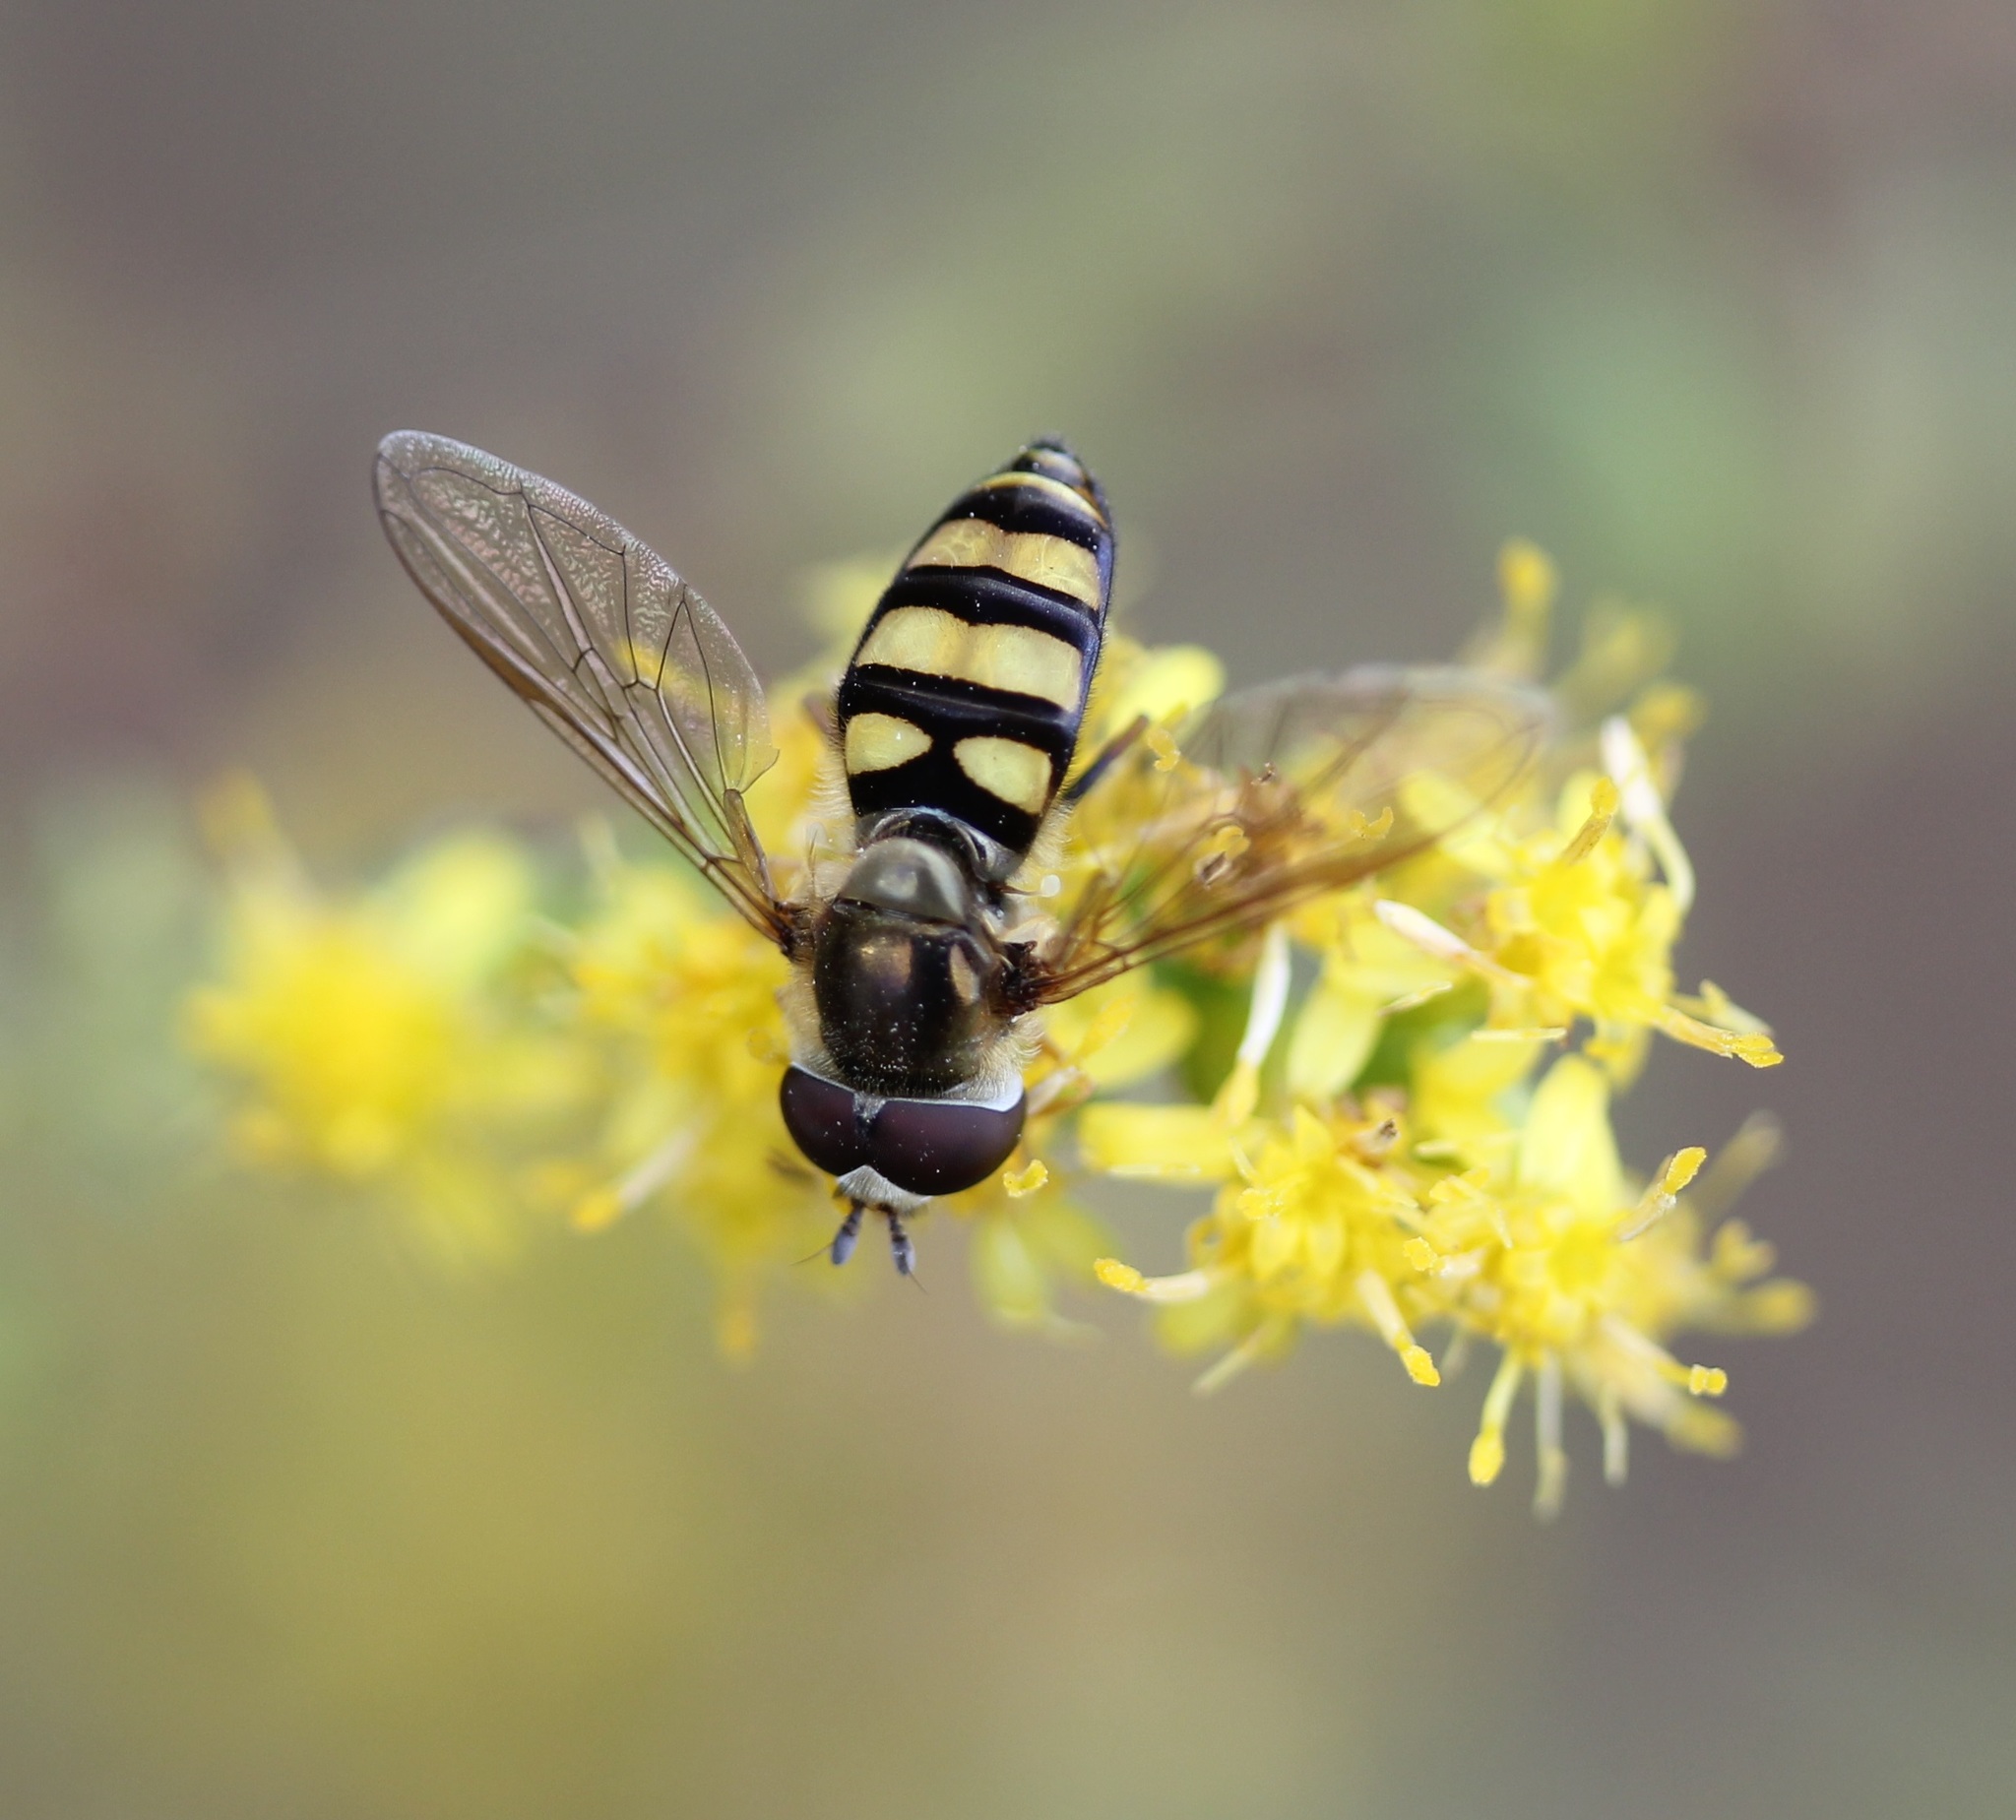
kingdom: Animalia
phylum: Arthropoda
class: Insecta
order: Diptera
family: Syrphidae
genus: Eupeodes
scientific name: Eupeodes
